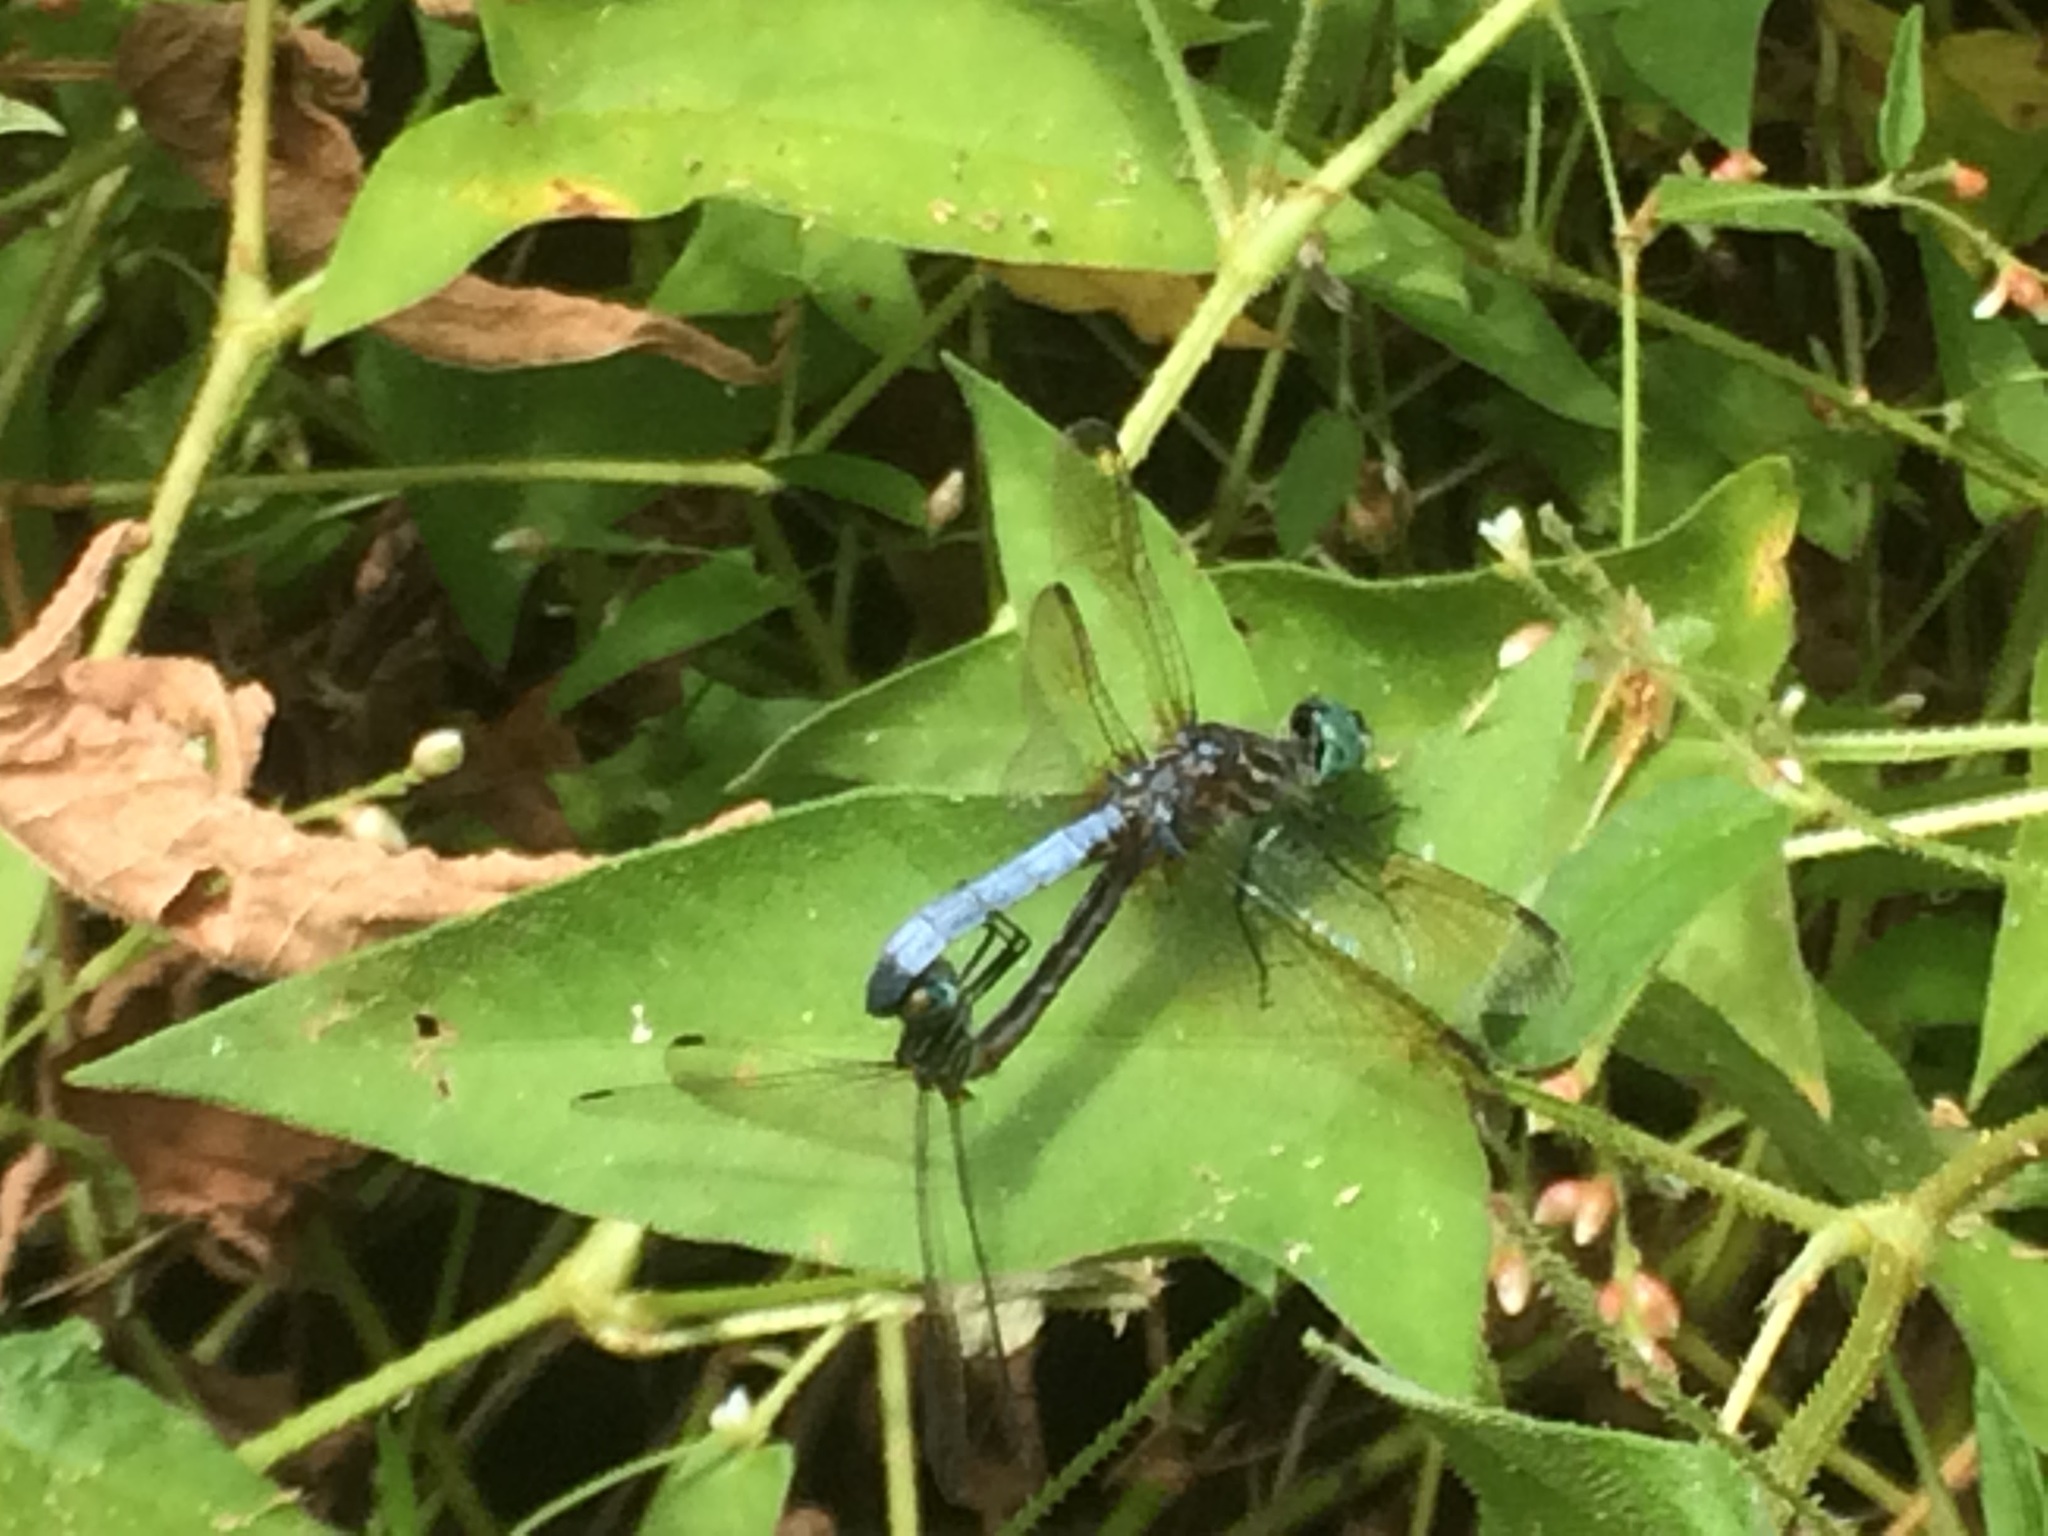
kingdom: Animalia
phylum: Arthropoda
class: Insecta
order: Odonata
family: Libellulidae
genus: Pachydiplax
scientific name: Pachydiplax longipennis
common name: Blue dasher
